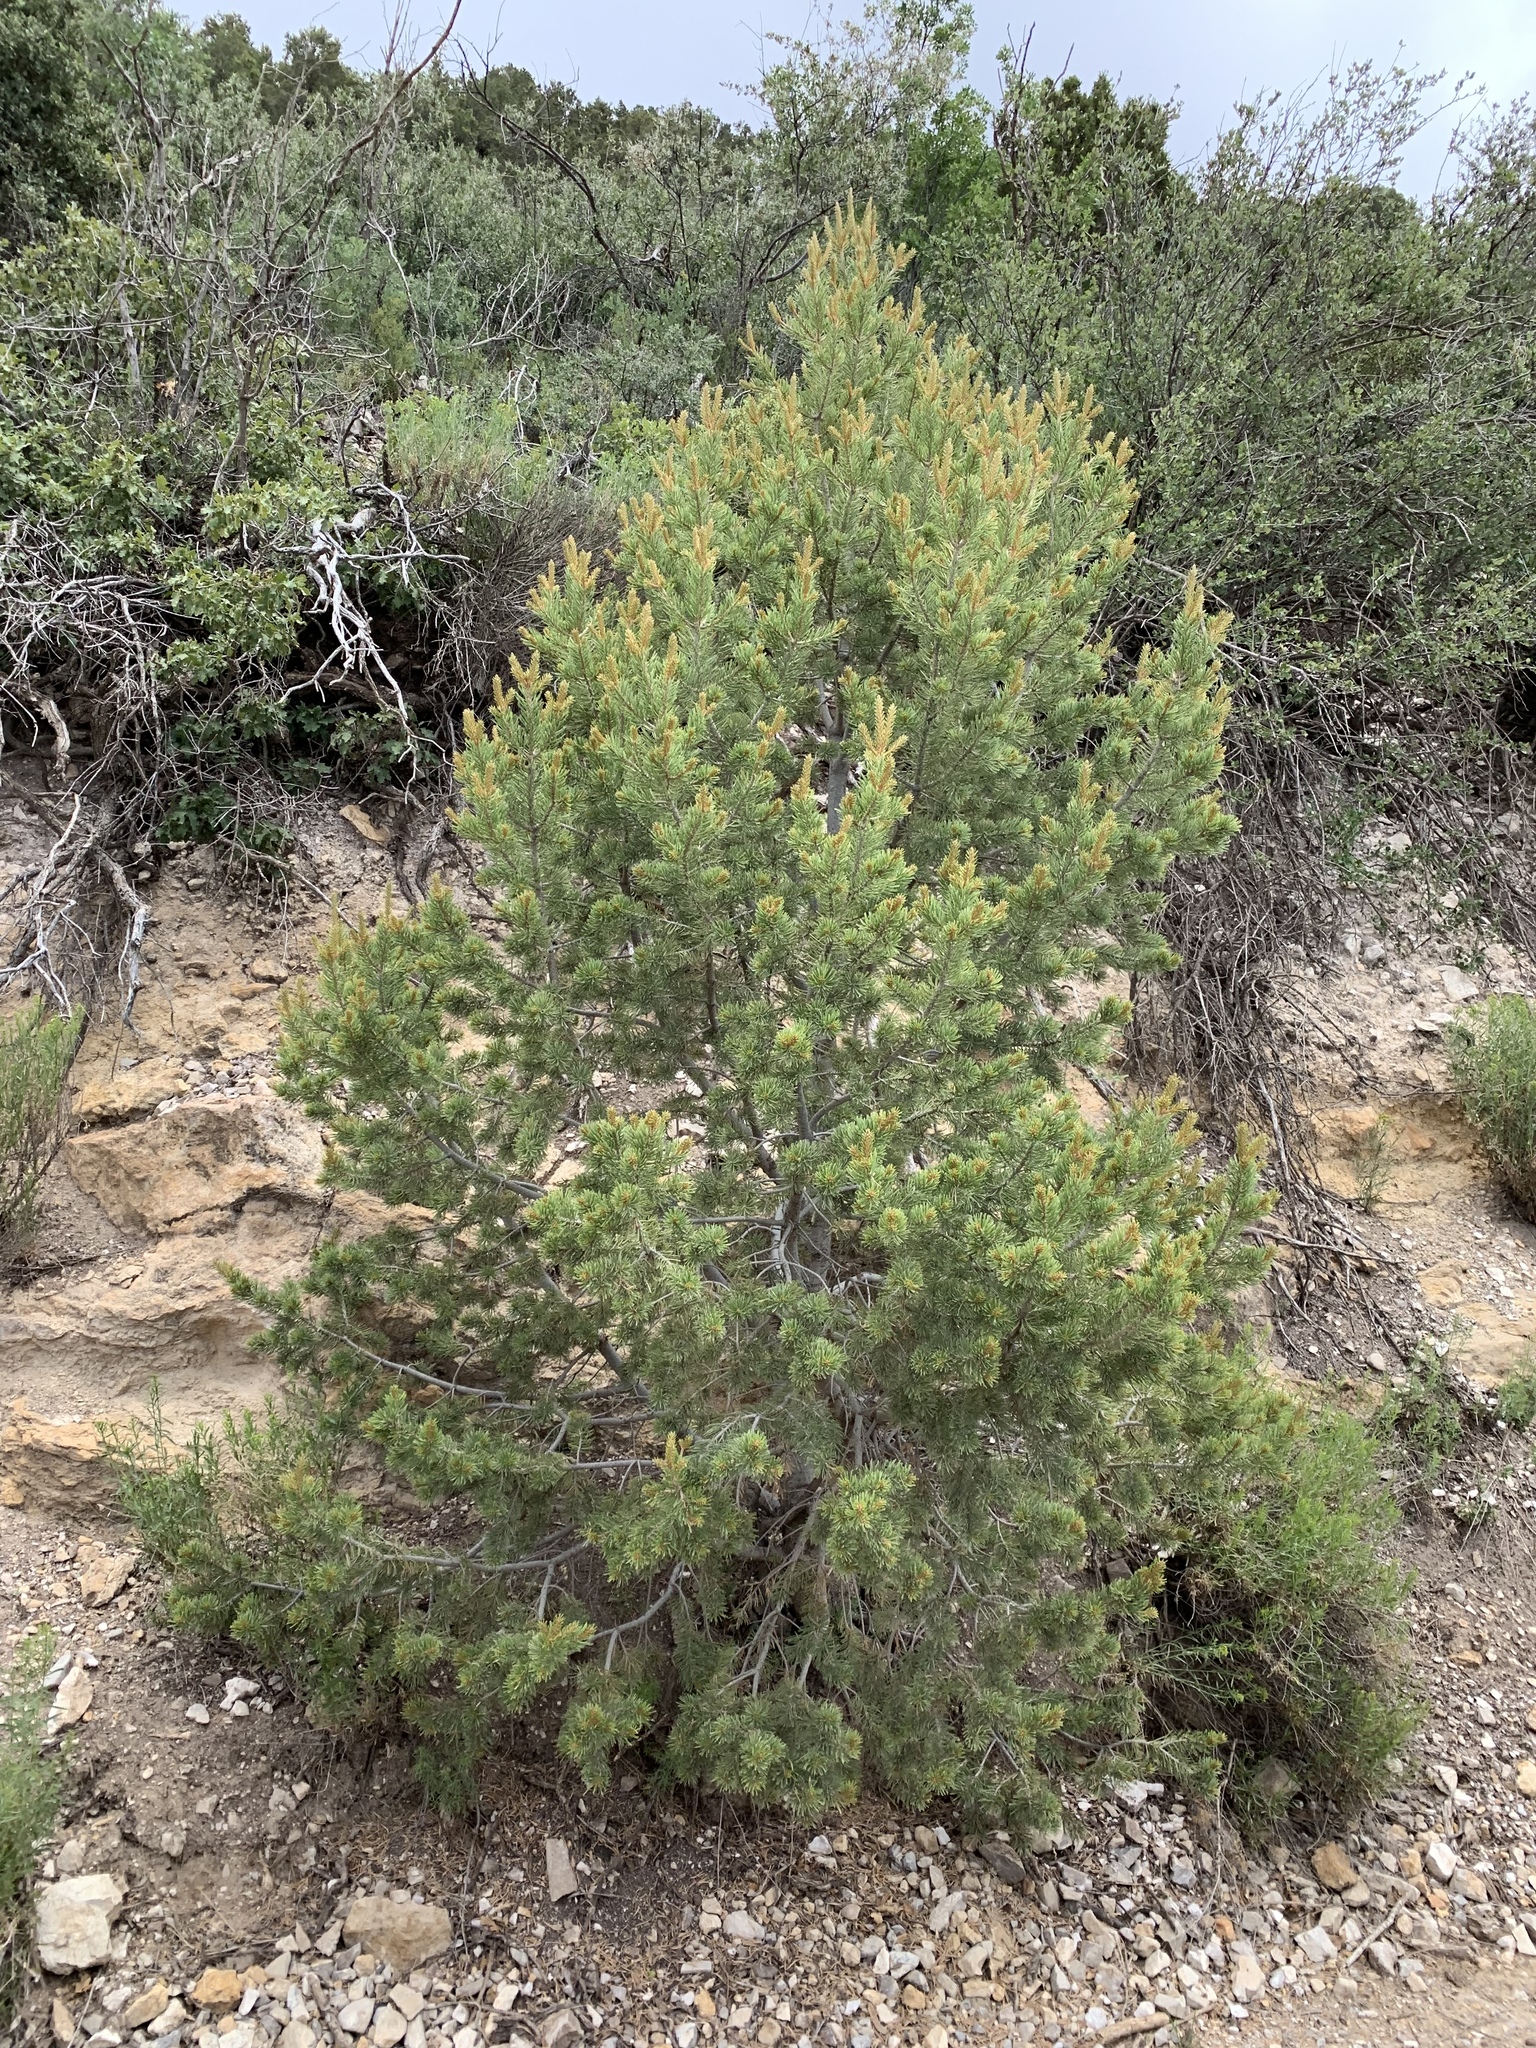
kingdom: Plantae
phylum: Tracheophyta
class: Pinopsida
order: Pinales
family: Pinaceae
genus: Pinus
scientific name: Pinus edulis
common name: Colorado pinyon
